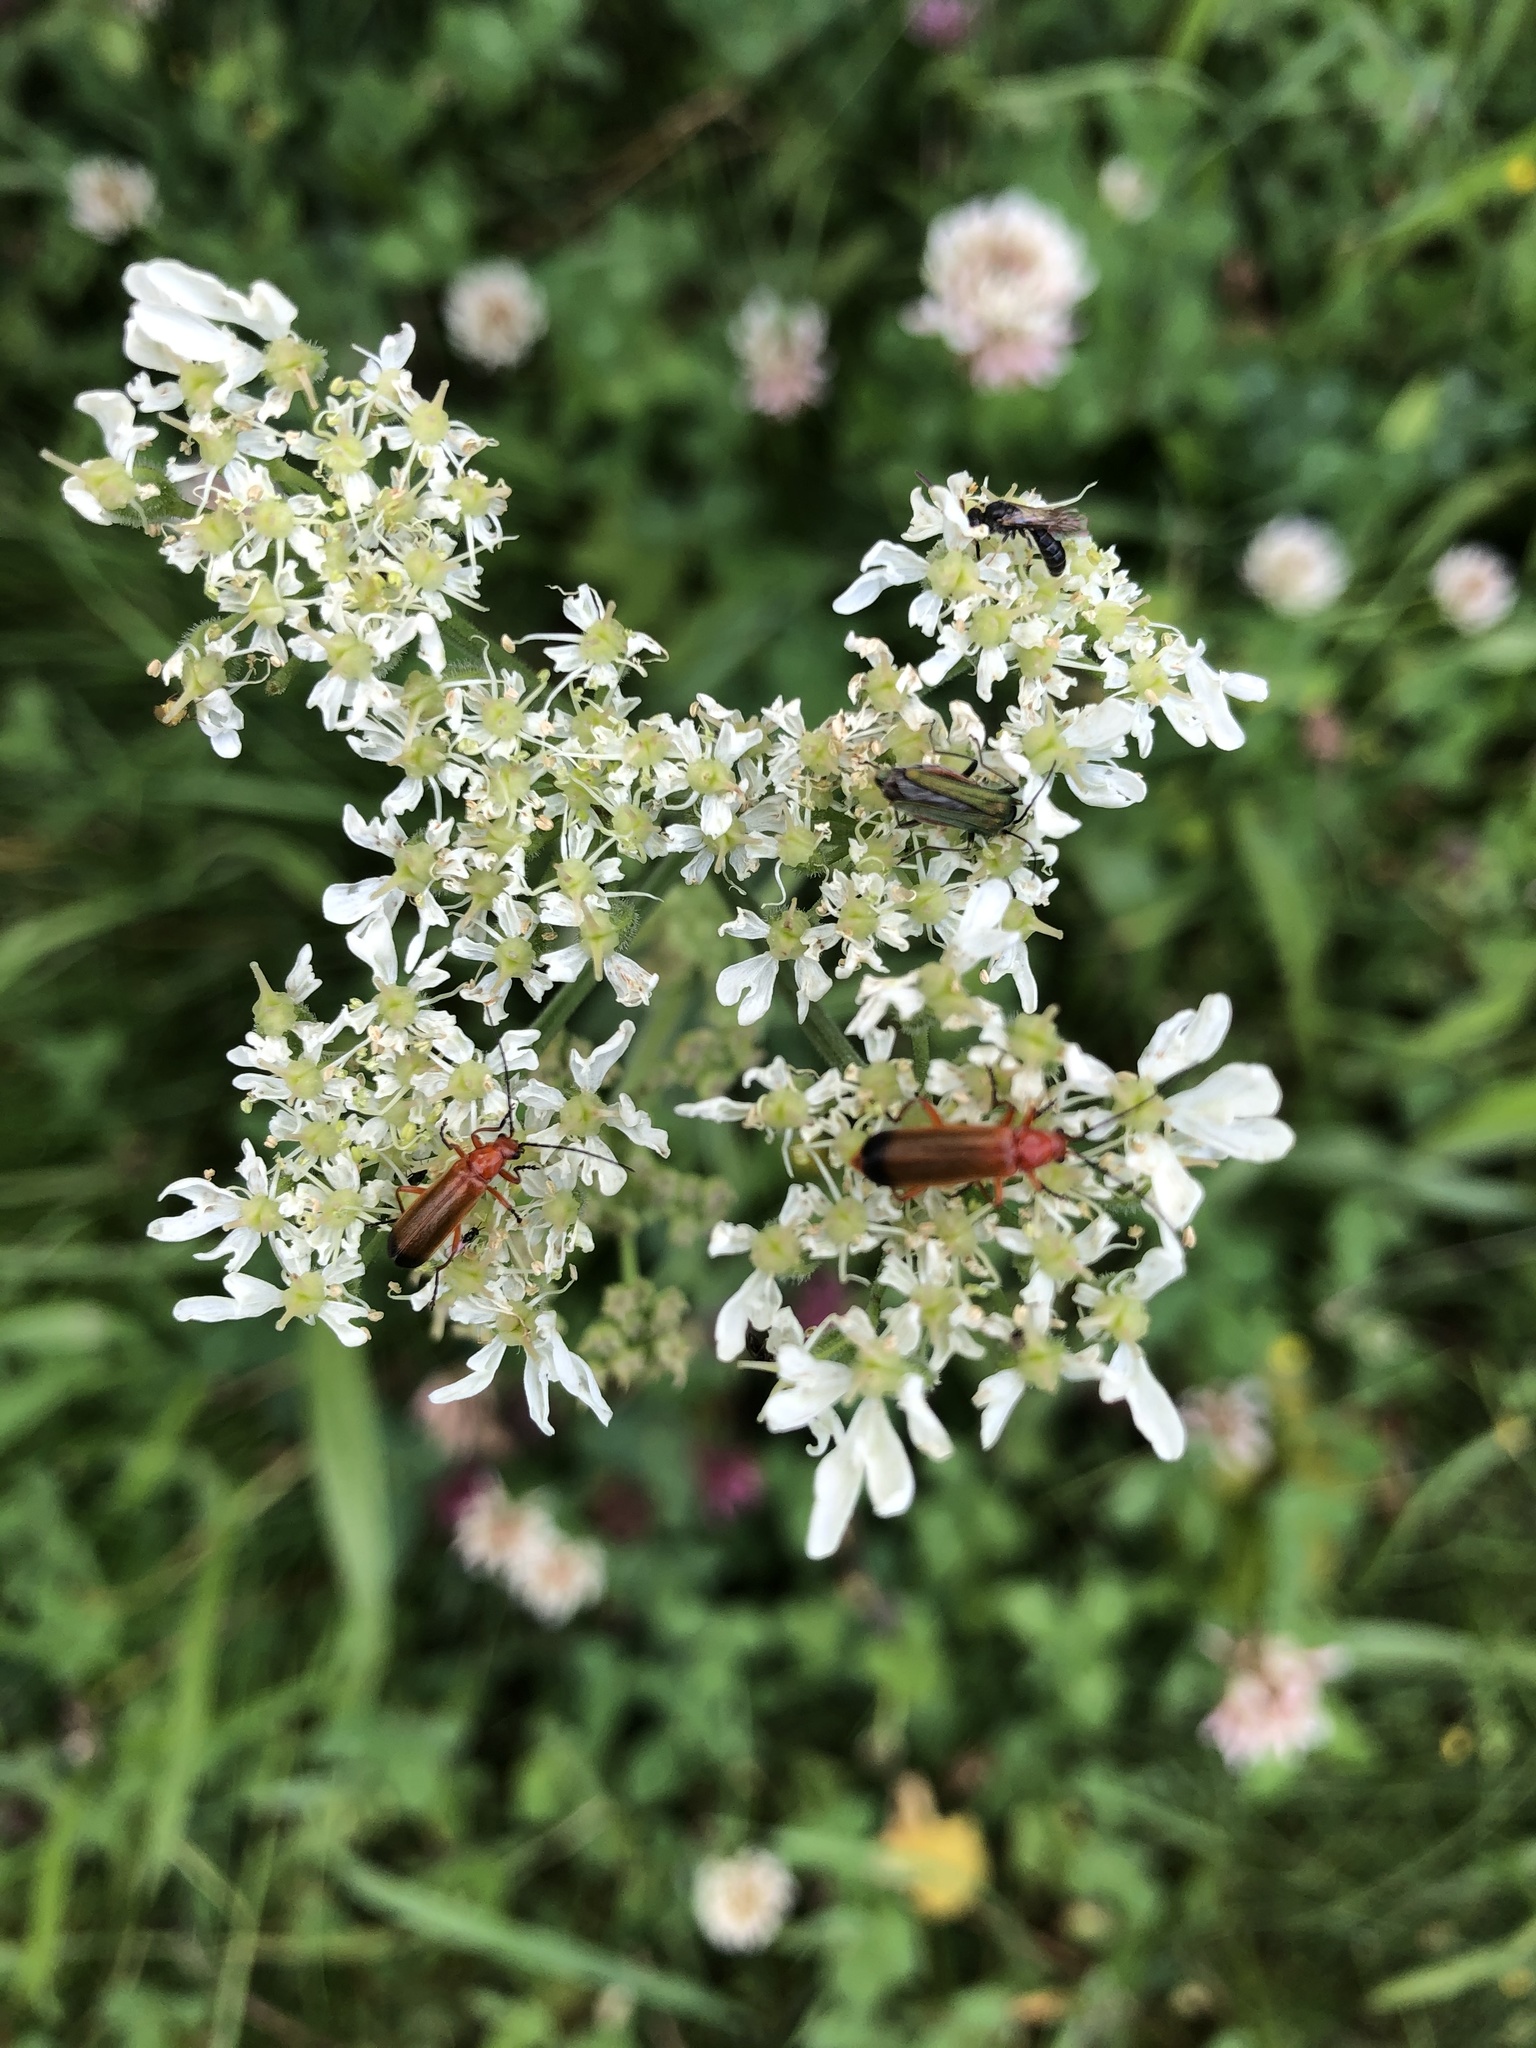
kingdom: Animalia
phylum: Arthropoda
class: Insecta
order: Coleoptera
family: Cantharidae
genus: Rhagonycha
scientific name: Rhagonycha fulva
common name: Common red soldier beetle
